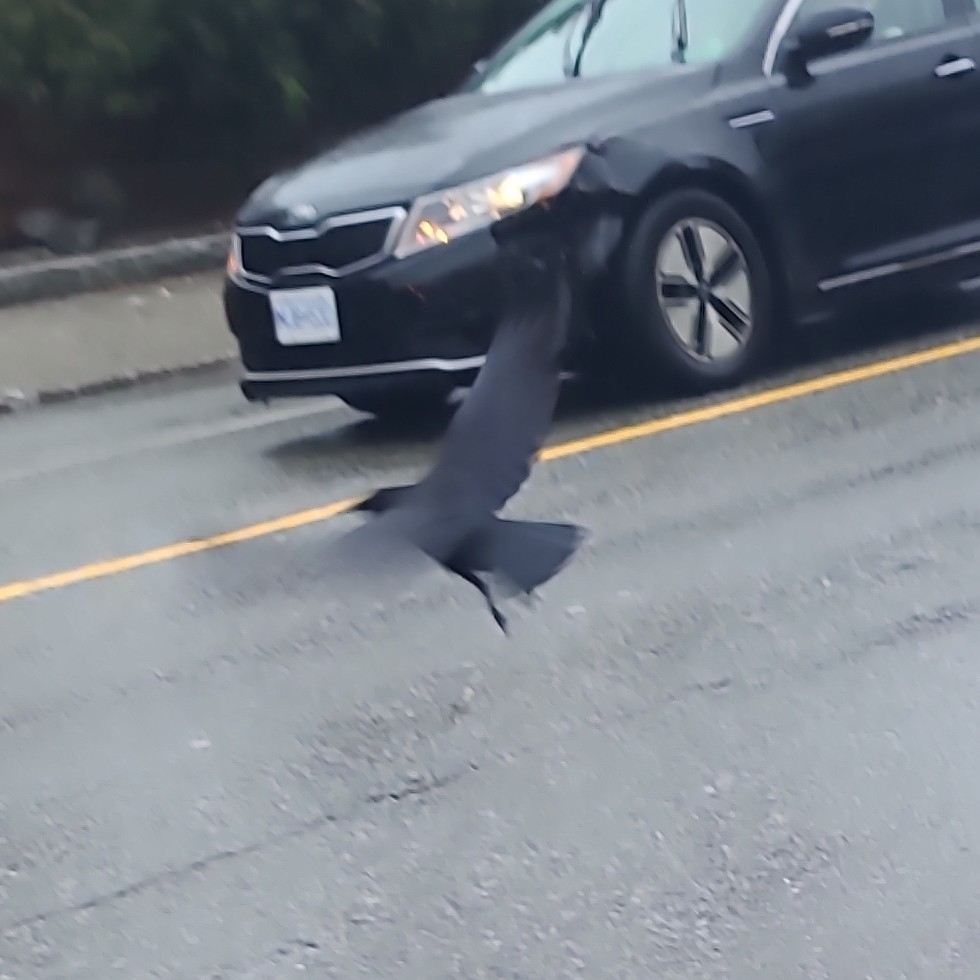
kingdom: Animalia
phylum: Chordata
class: Aves
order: Passeriformes
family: Corvidae
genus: Corvus
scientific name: Corvus brachyrhynchos
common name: American crow
